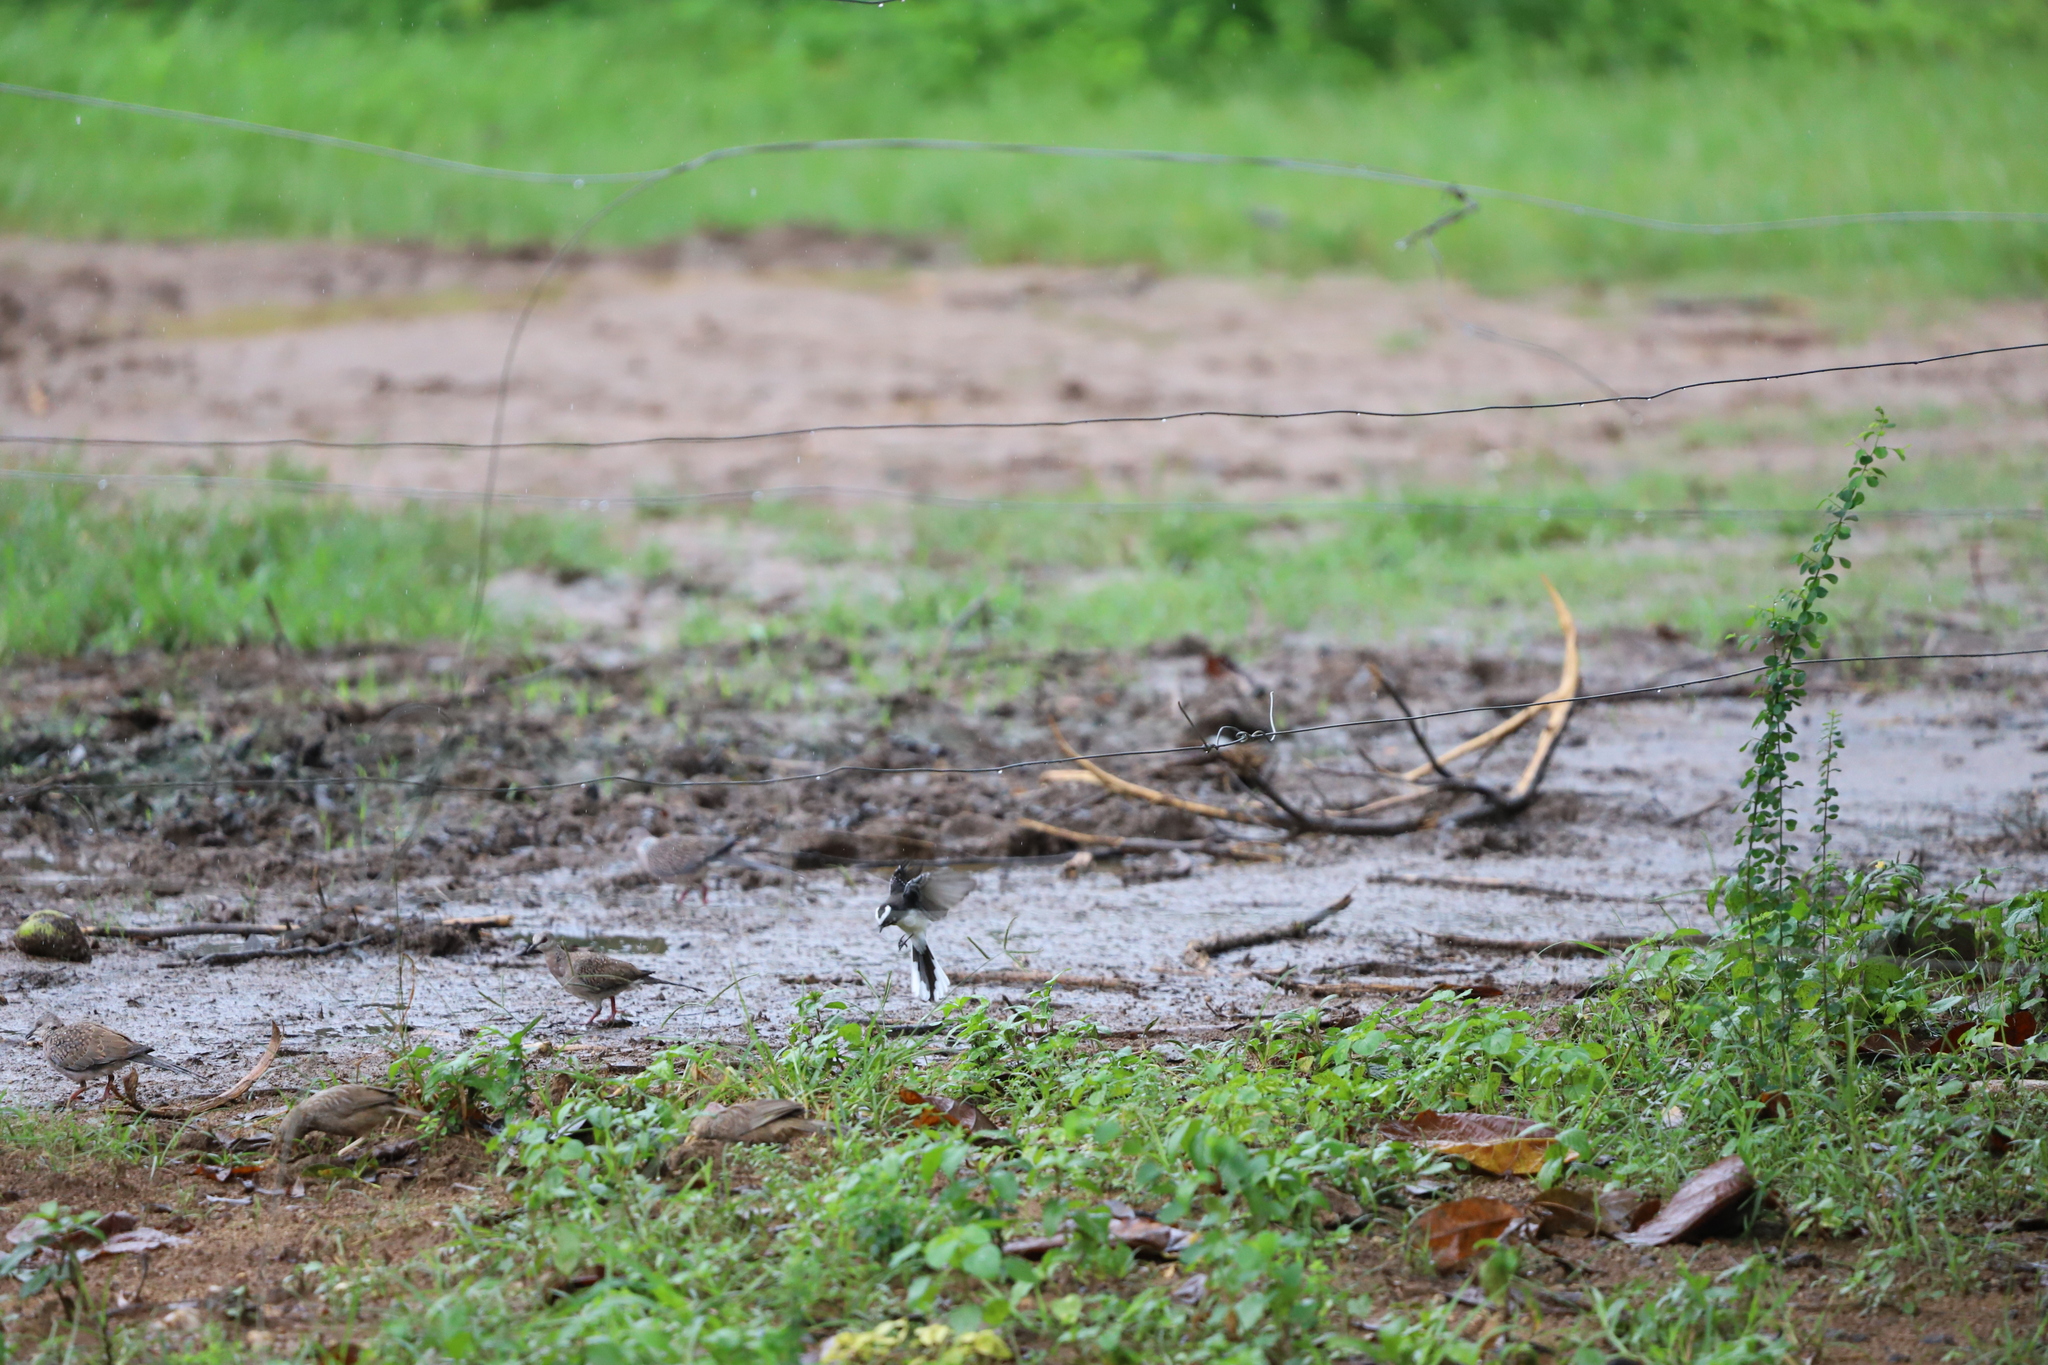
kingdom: Animalia
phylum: Chordata
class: Aves
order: Passeriformes
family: Rhipiduridae
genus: Rhipidura
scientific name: Rhipidura aureola
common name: White-browed fantail
